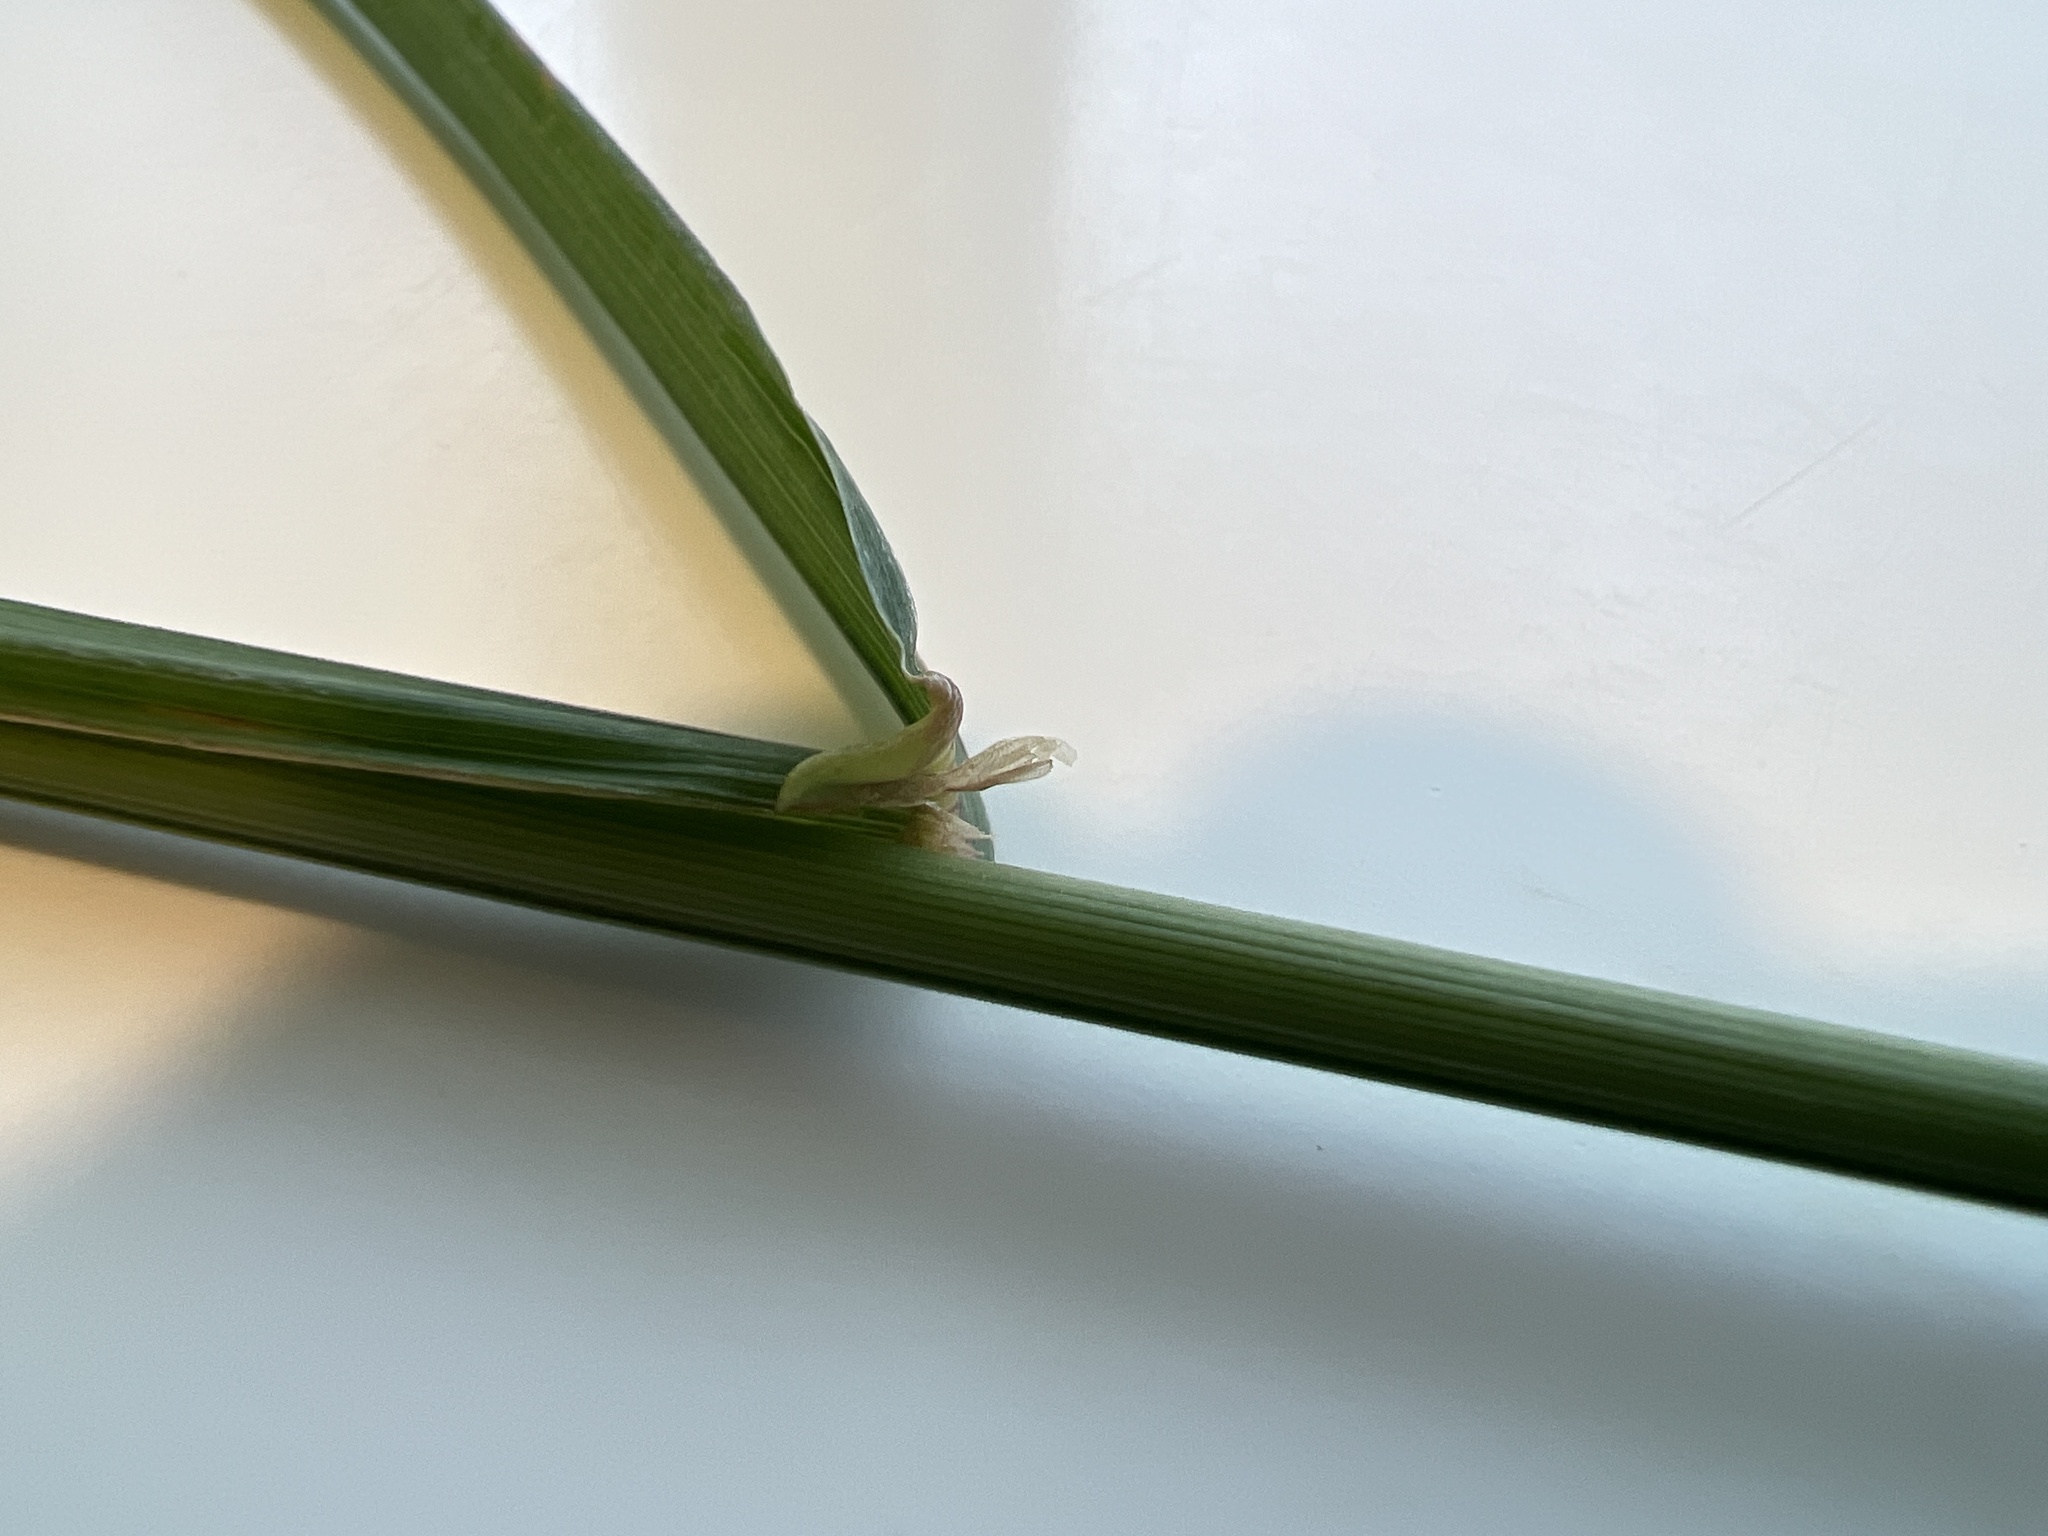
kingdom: Plantae
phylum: Tracheophyta
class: Liliopsida
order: Poales
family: Poaceae
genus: Dactylis
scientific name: Dactylis glomerata
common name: Orchardgrass
